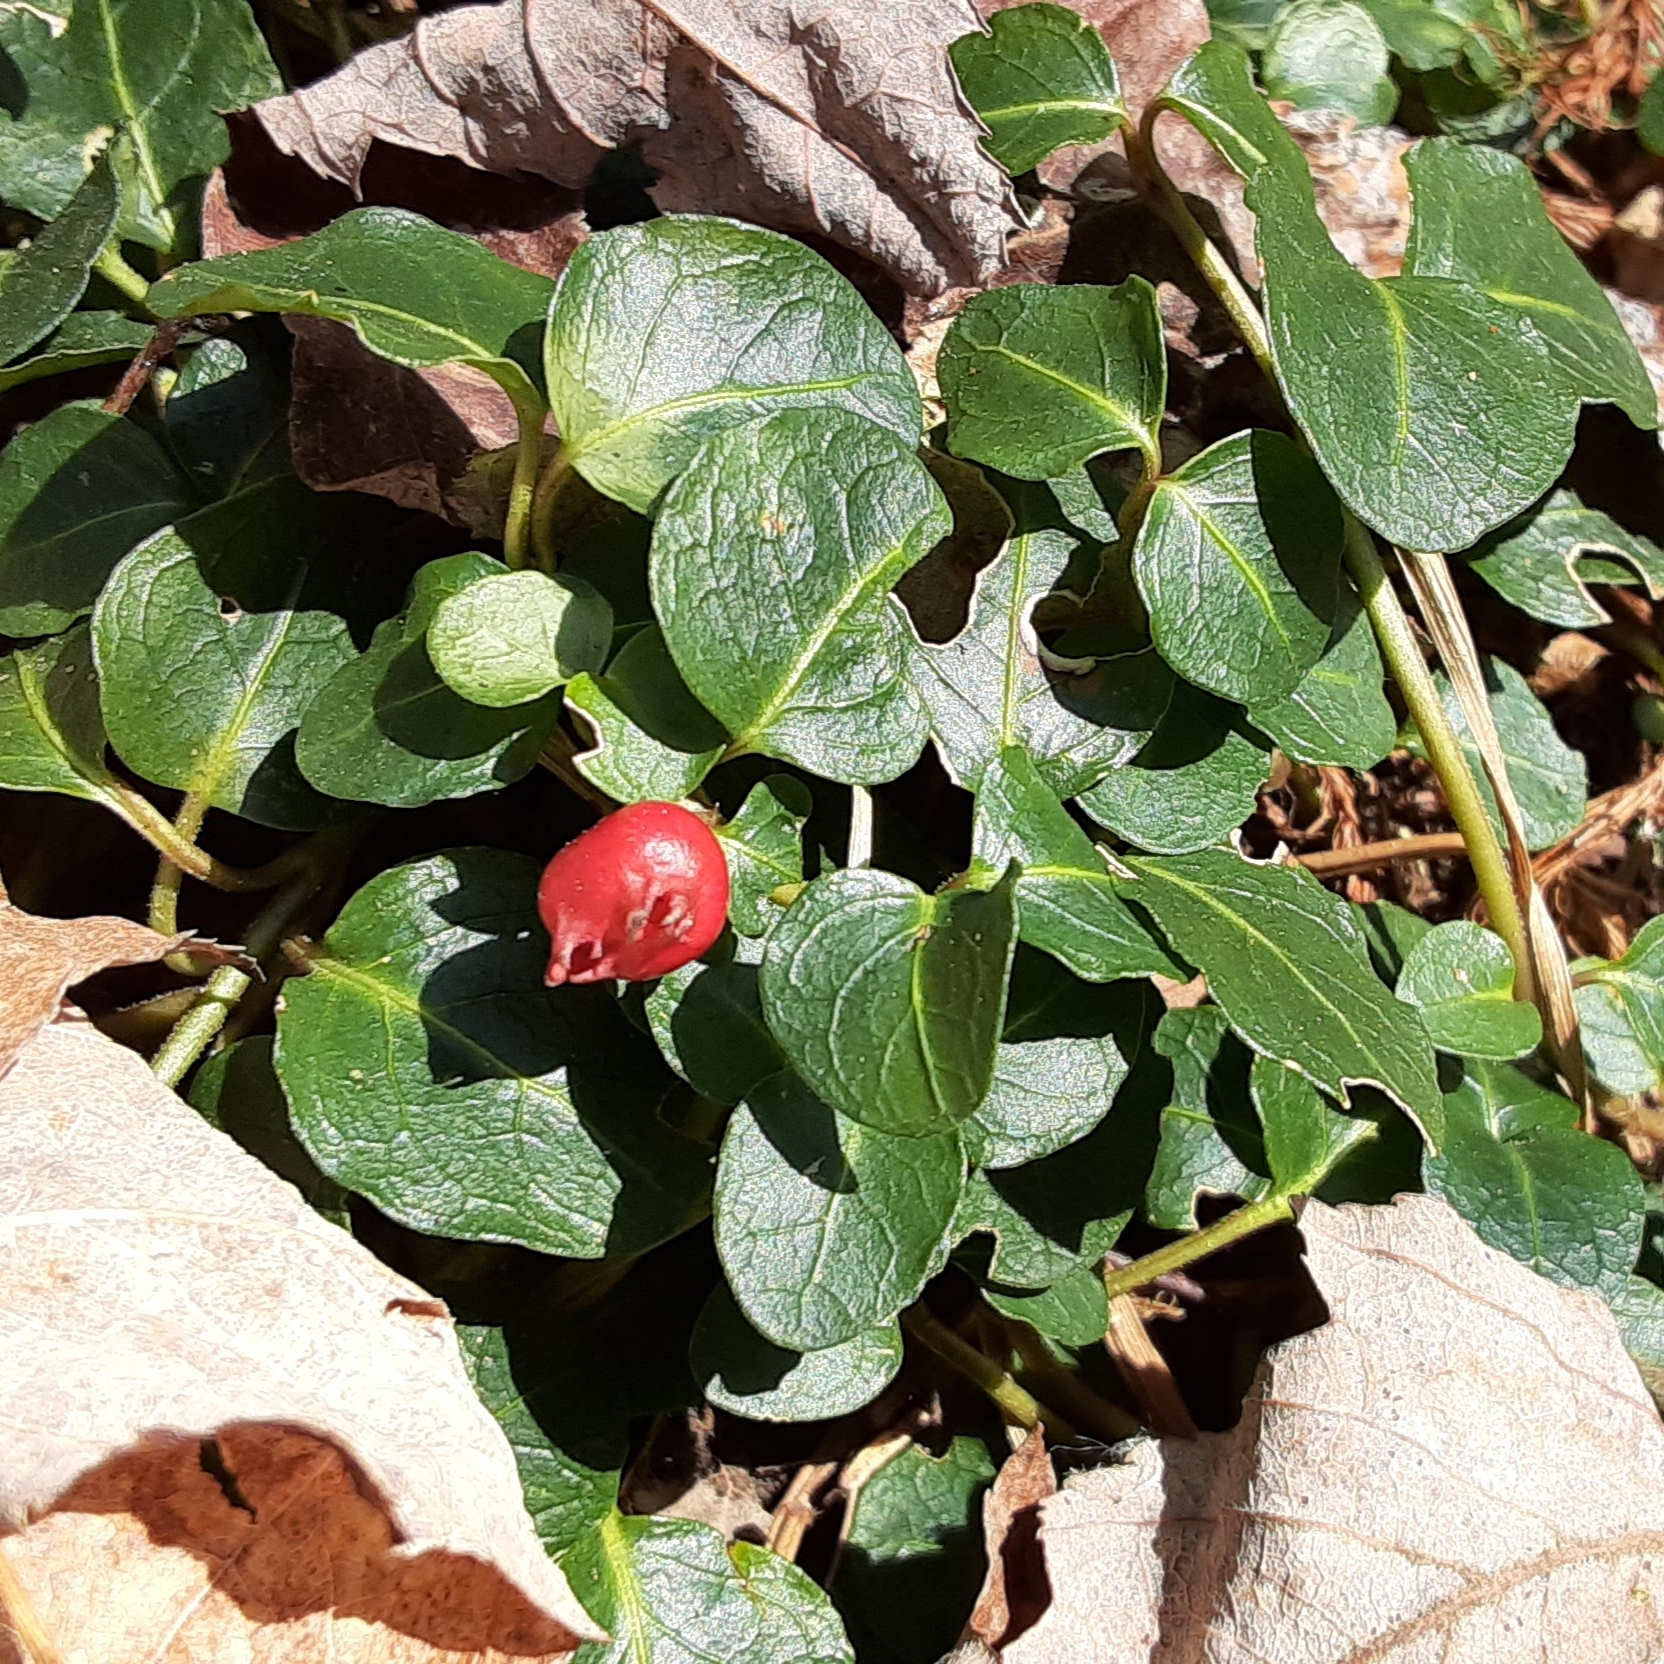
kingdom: Plantae
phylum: Tracheophyta
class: Magnoliopsida
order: Gentianales
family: Rubiaceae
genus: Mitchella
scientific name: Mitchella repens
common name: Partridge-berry
